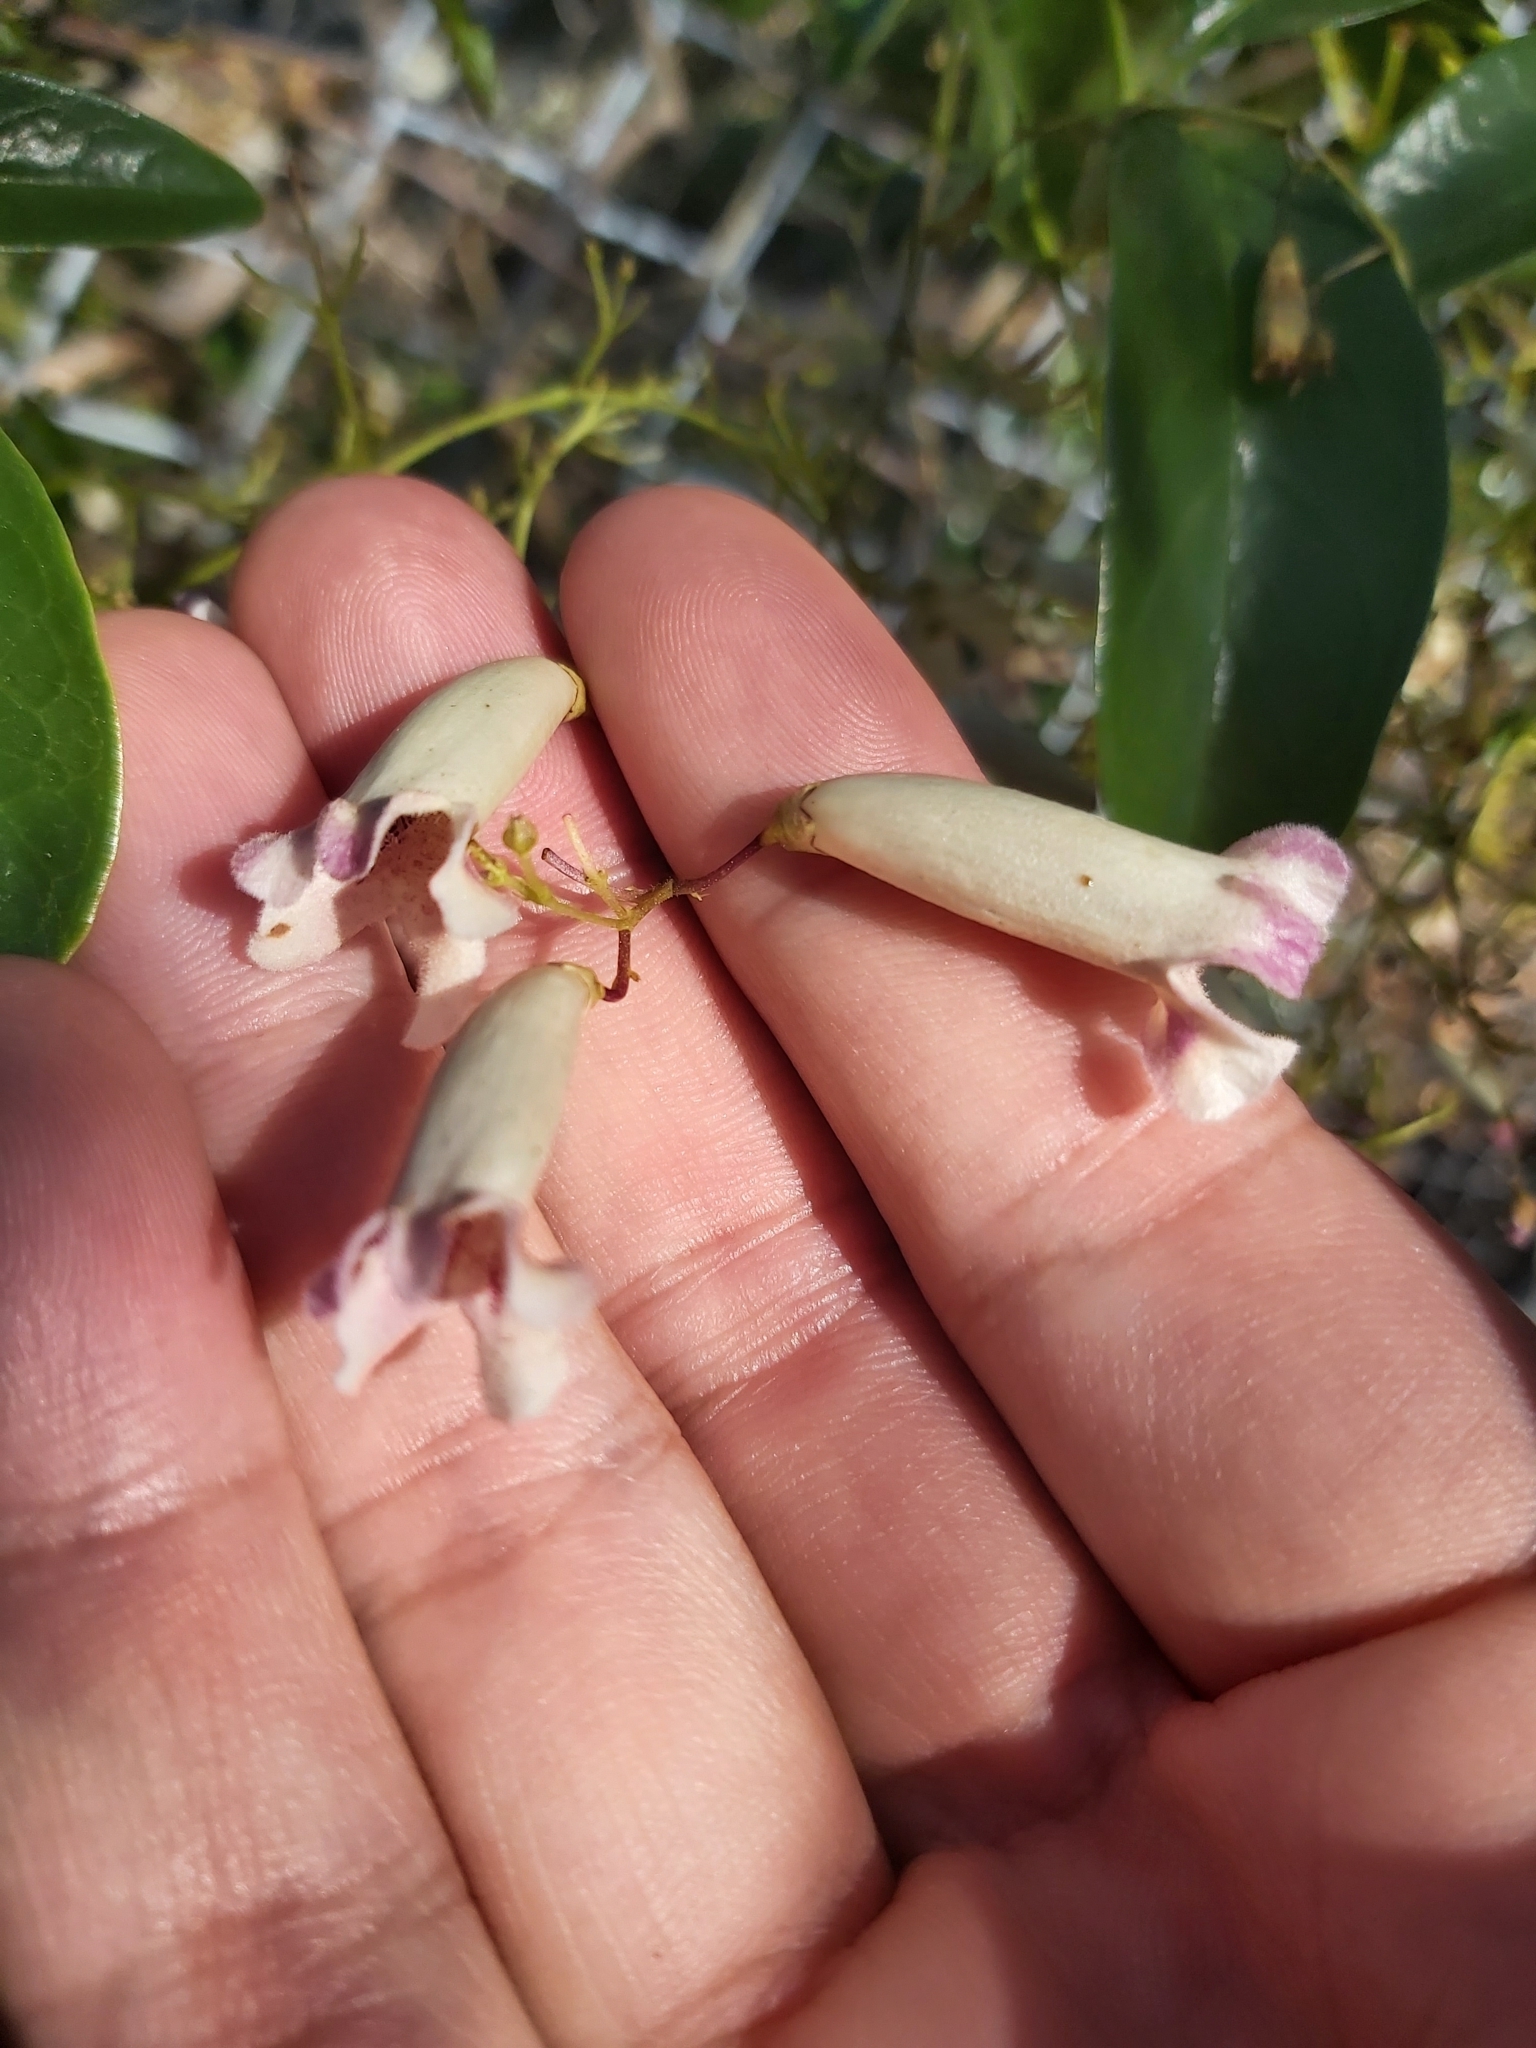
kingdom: Plantae
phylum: Tracheophyta
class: Magnoliopsida
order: Lamiales
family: Bignoniaceae
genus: Pandorea
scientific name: Pandorea pandorana
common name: Wonga-wonga-vine
